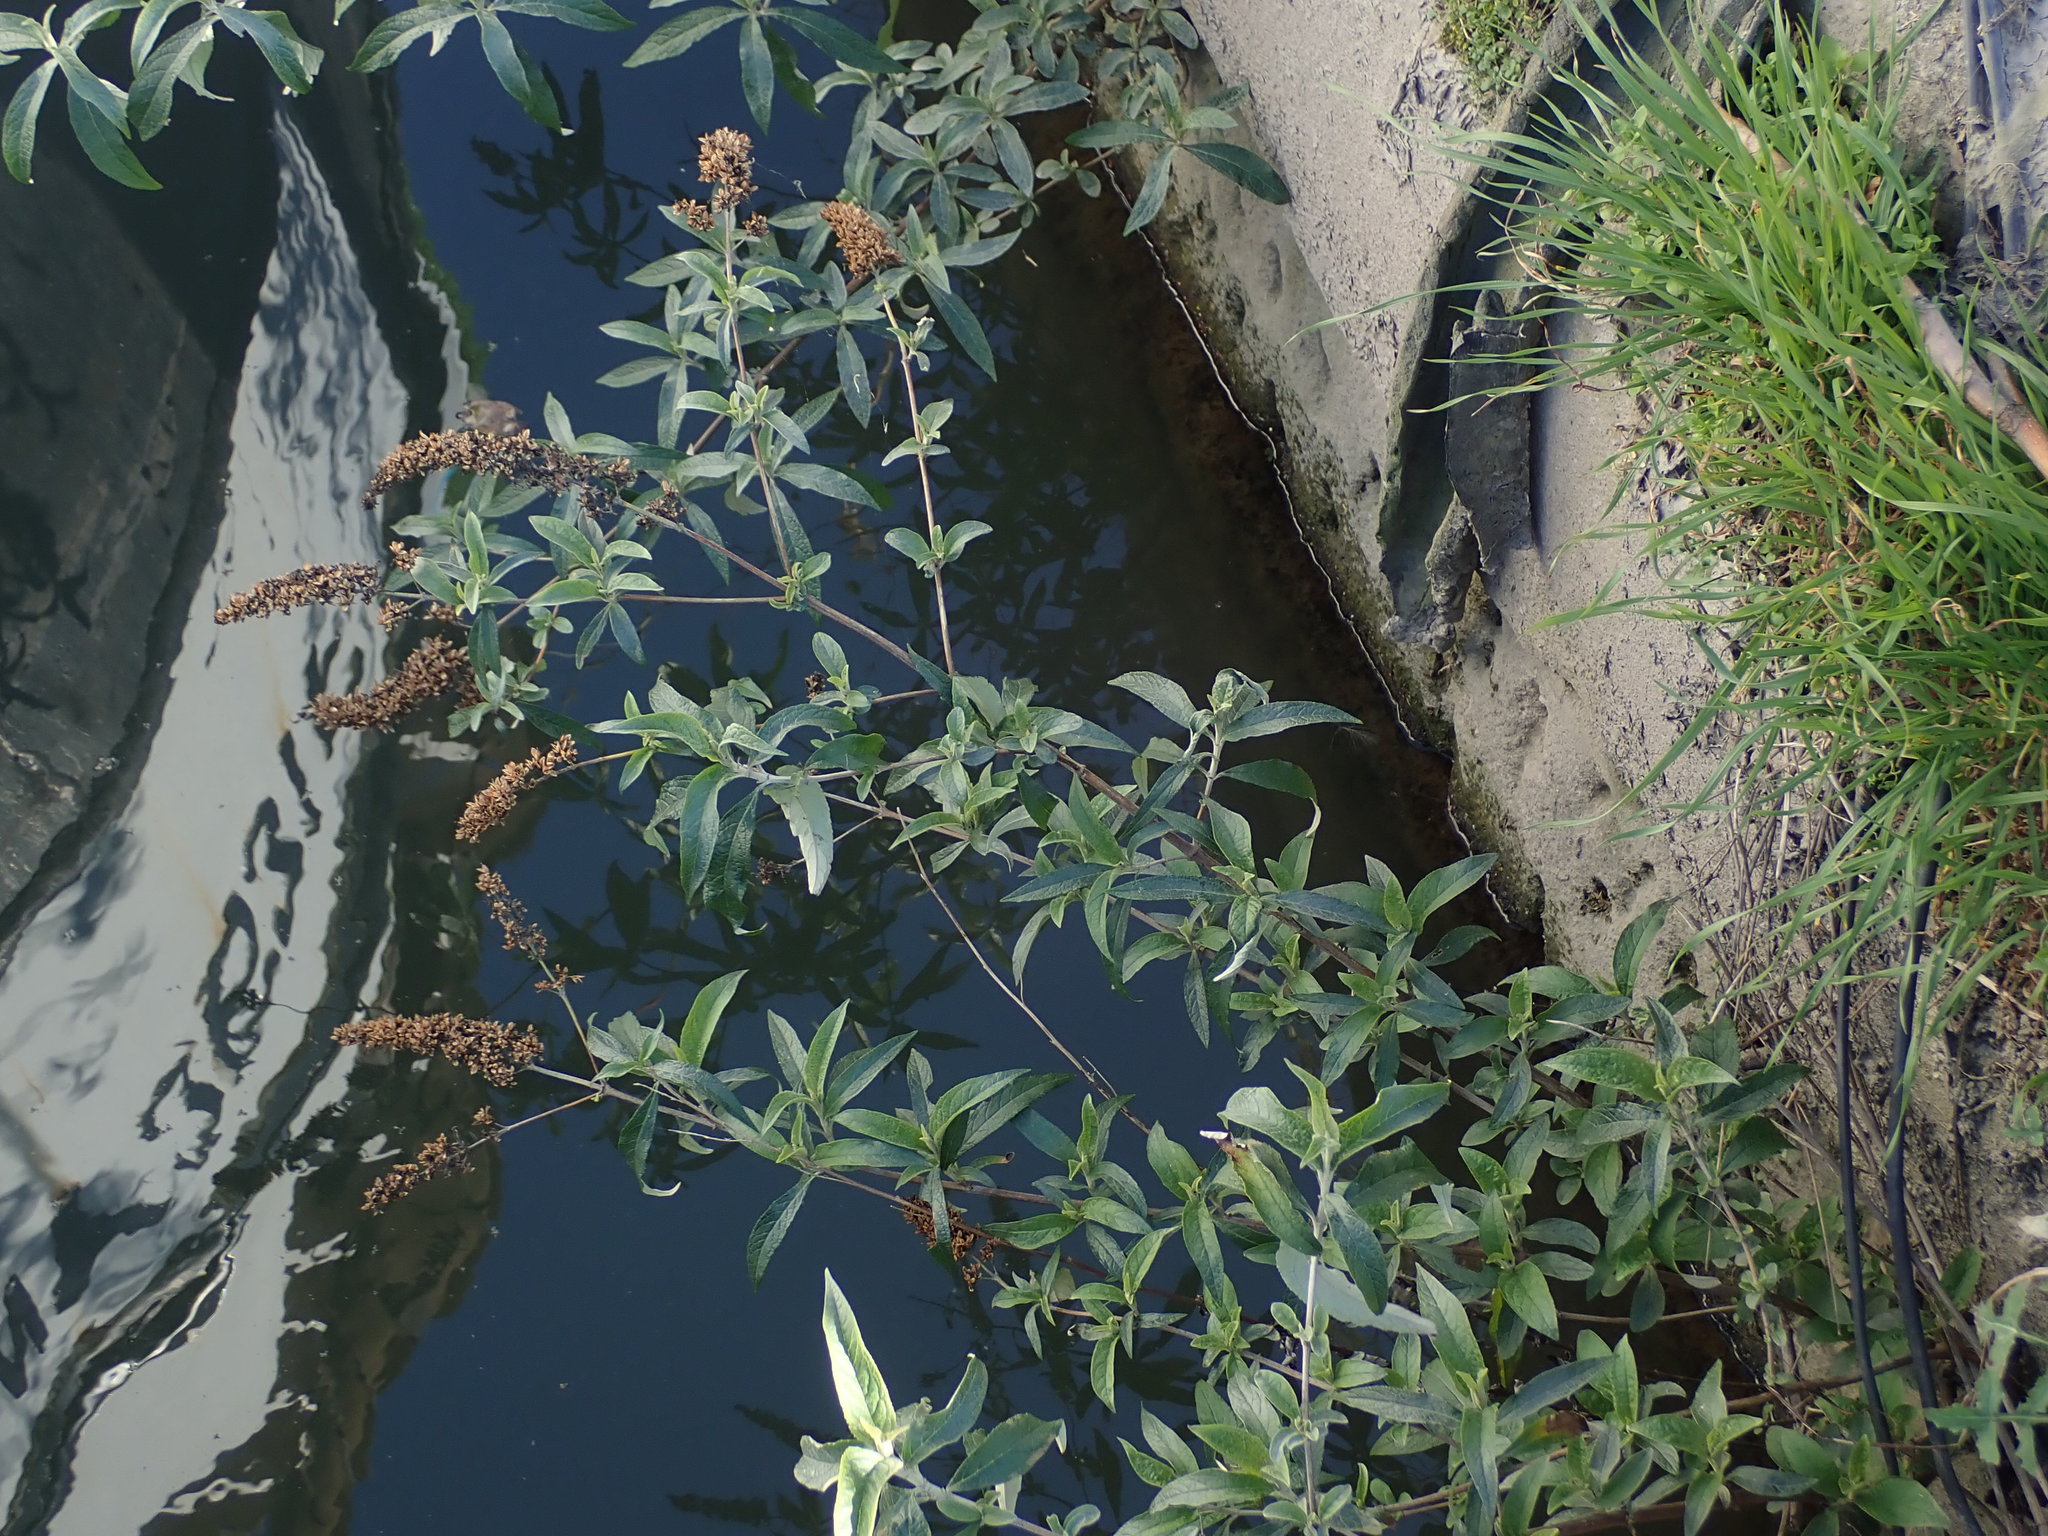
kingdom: Plantae
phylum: Tracheophyta
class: Magnoliopsida
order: Lamiales
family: Scrophulariaceae
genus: Buddleja
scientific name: Buddleja davidii
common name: Butterfly-bush
